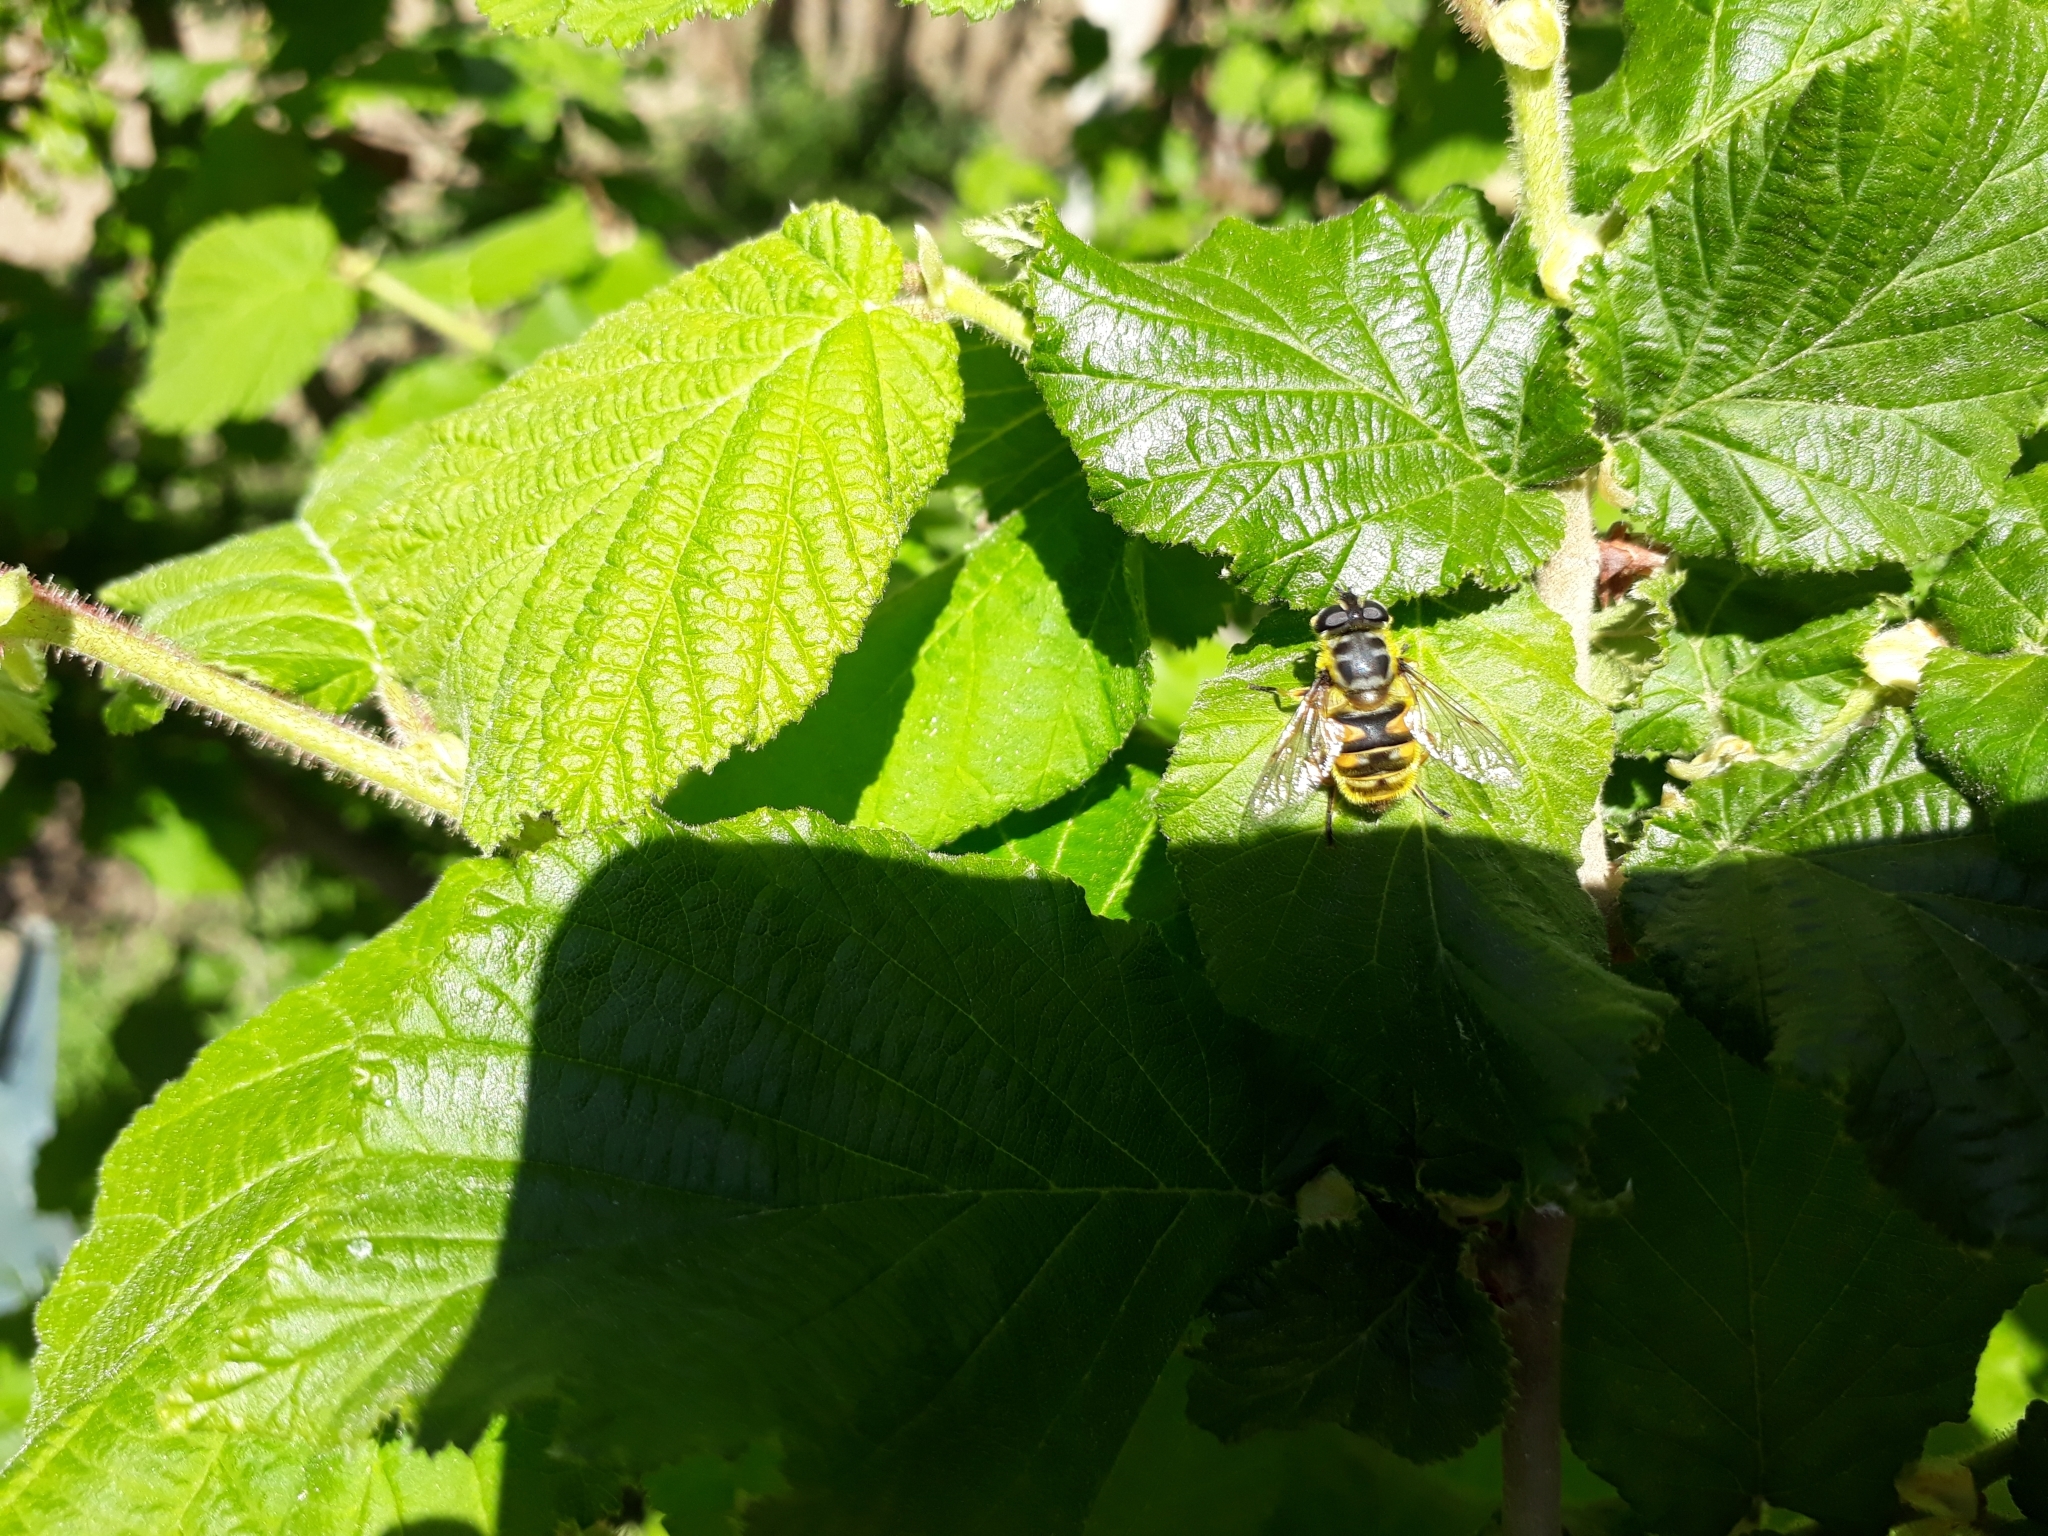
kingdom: Animalia
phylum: Arthropoda
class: Insecta
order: Diptera
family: Syrphidae
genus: Myathropa
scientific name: Myathropa florea
